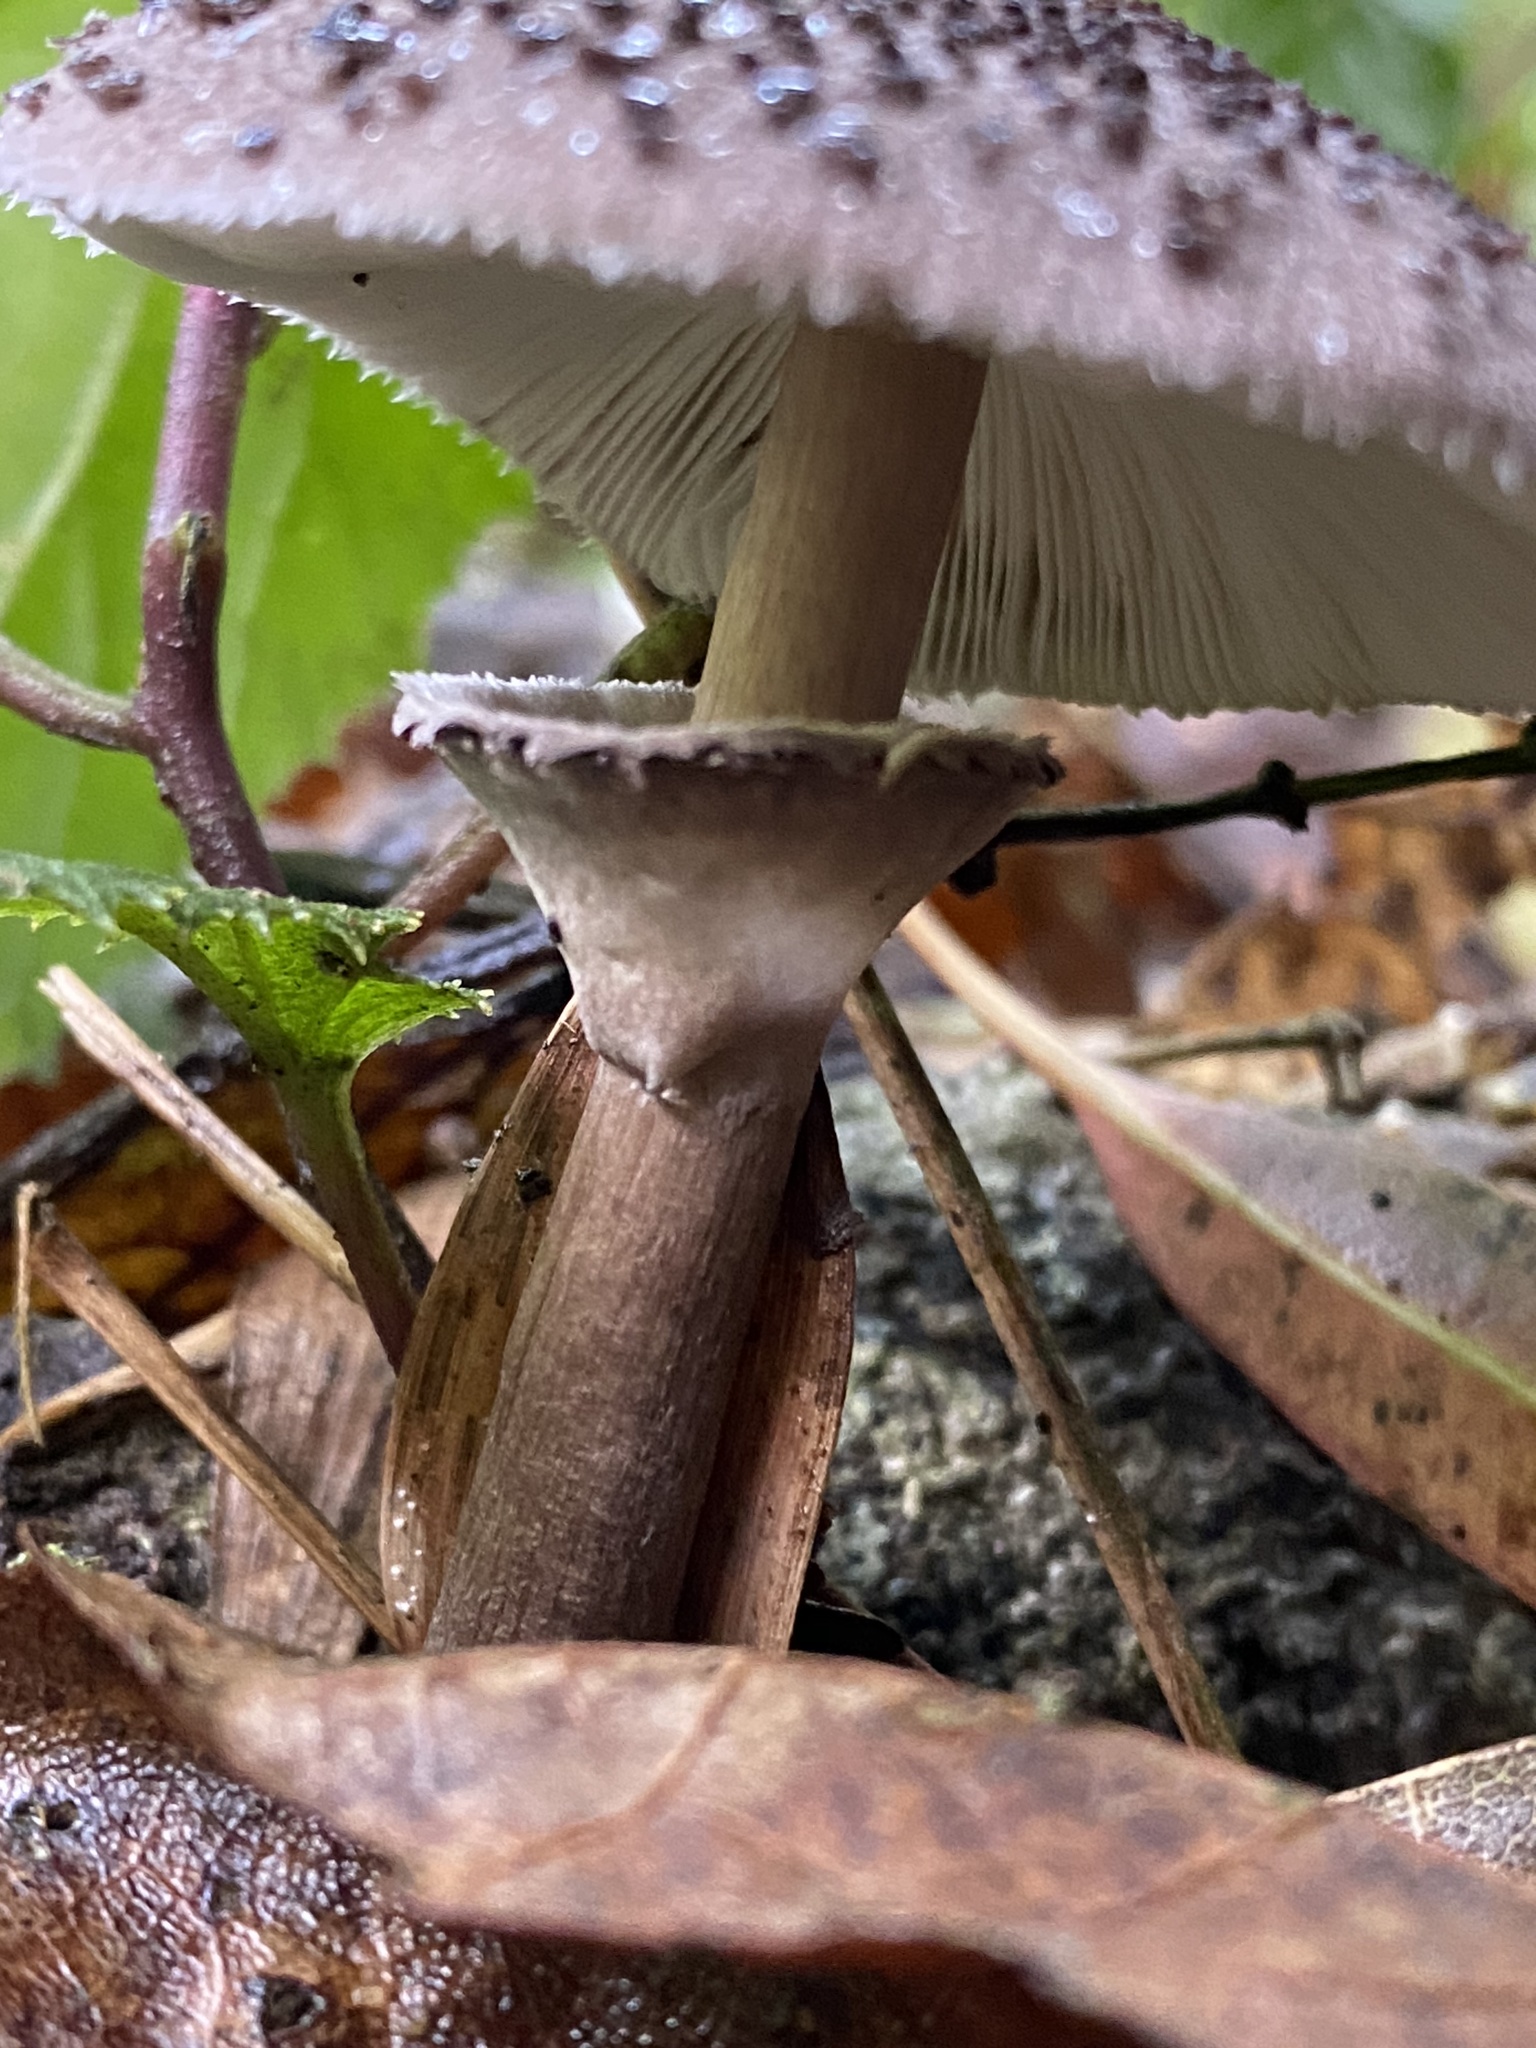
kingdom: Fungi
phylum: Basidiomycota
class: Agaricomycetes
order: Agaricales
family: Agaricaceae
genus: Macrolepiota
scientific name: Macrolepiota pulchella
